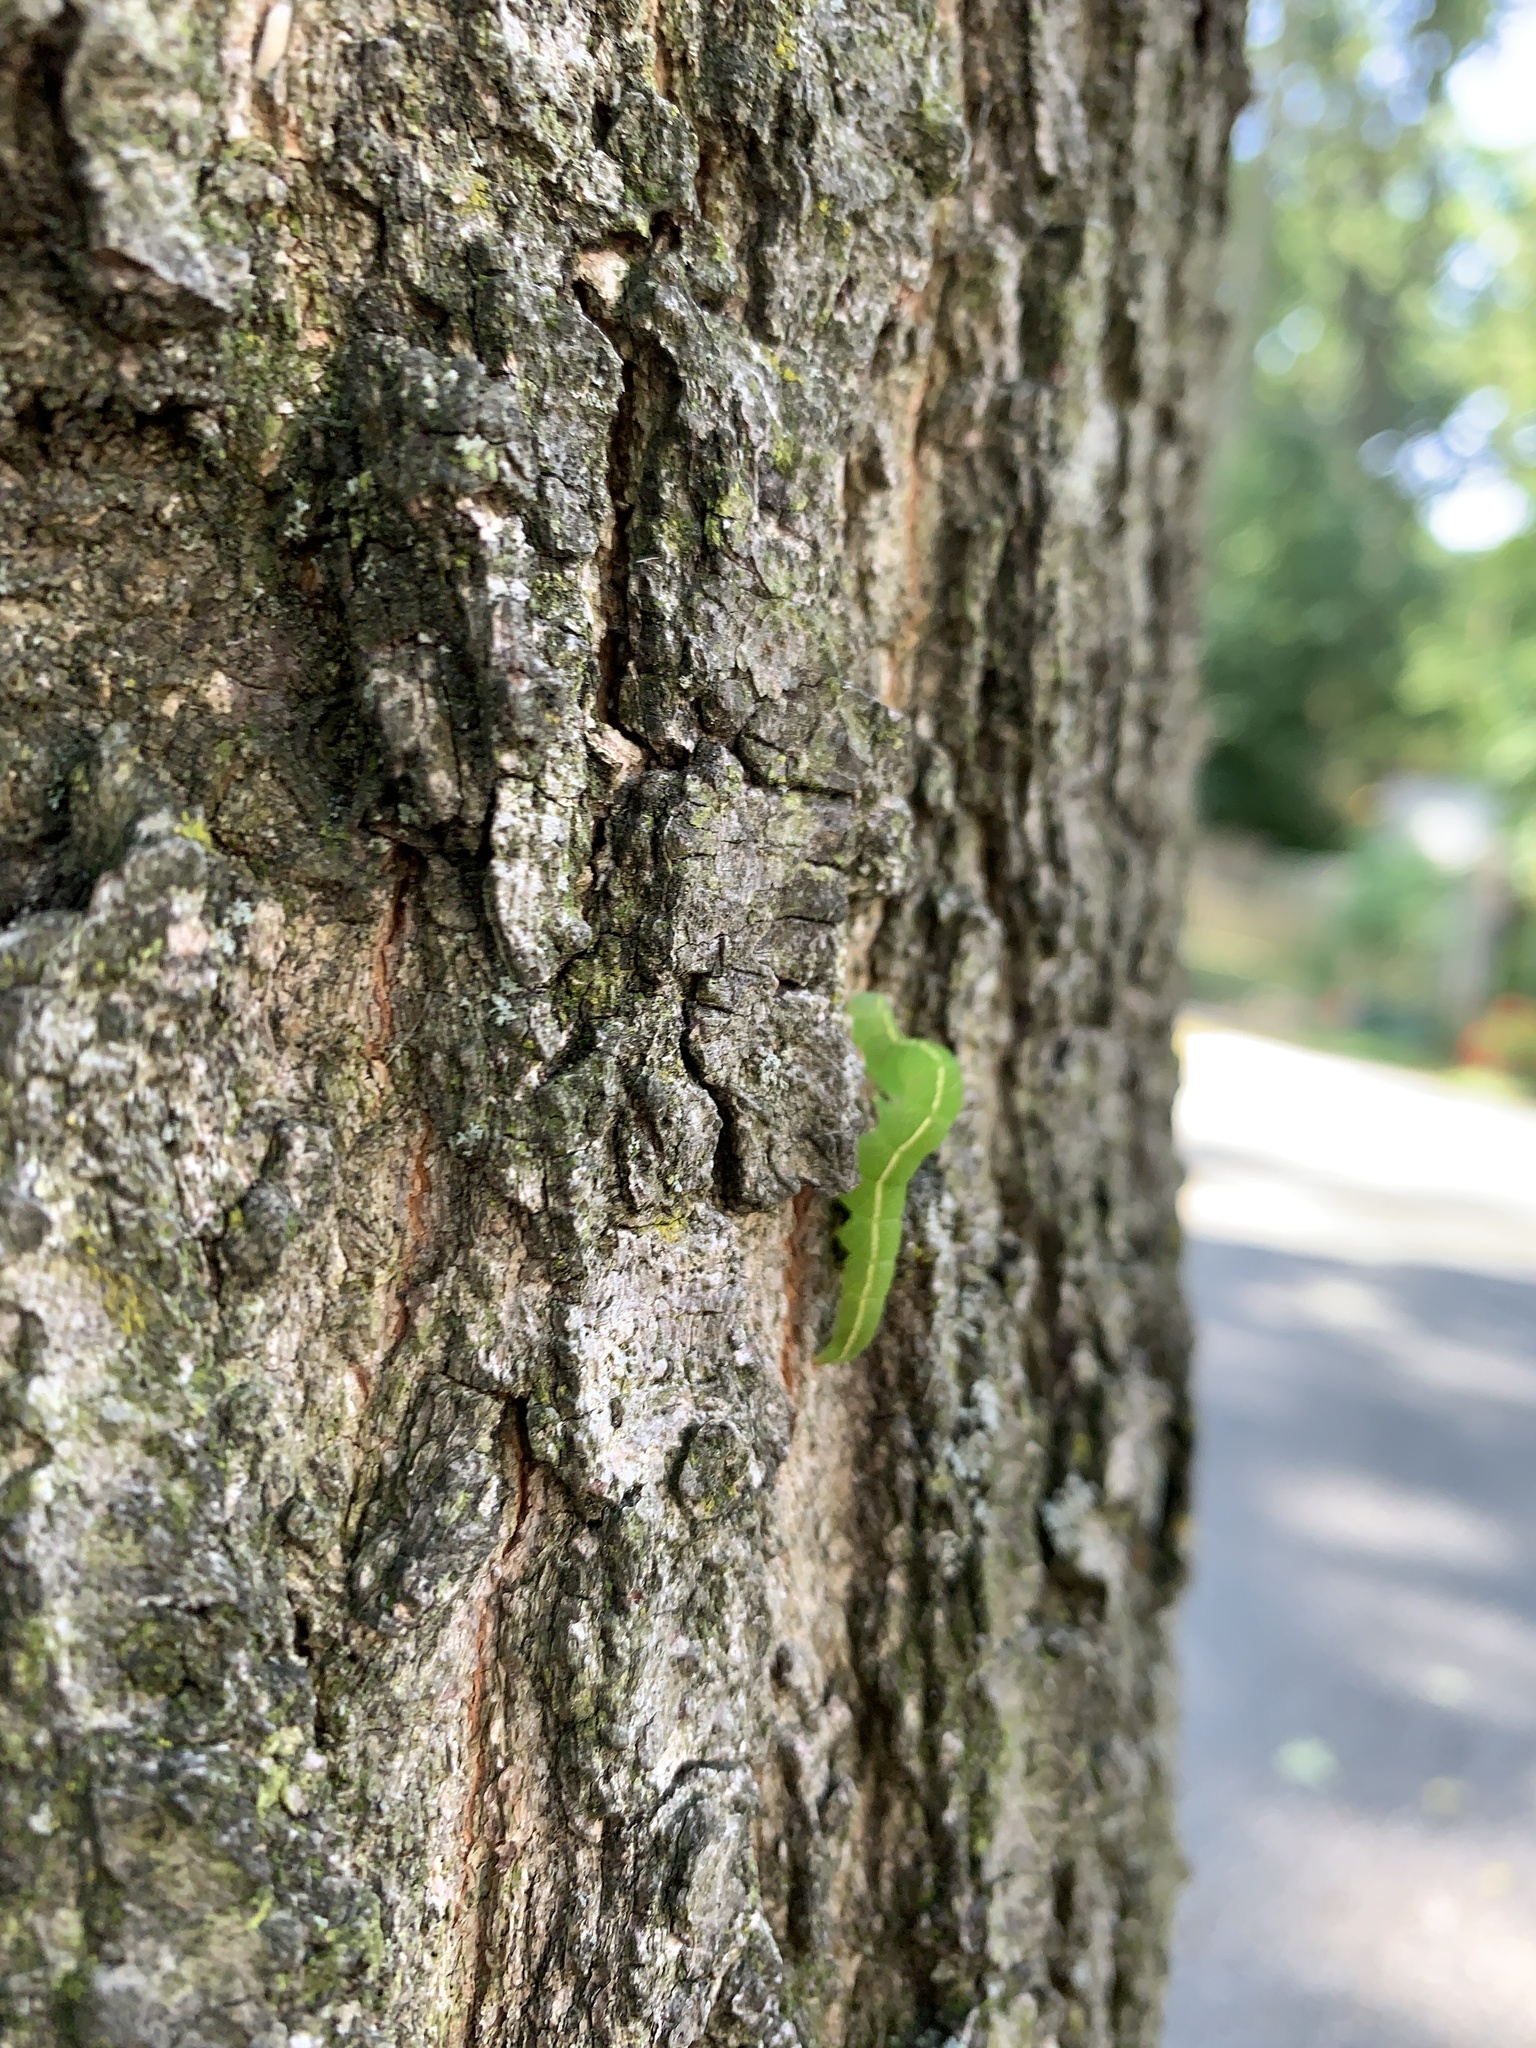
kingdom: Animalia
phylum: Arthropoda
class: Insecta
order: Lepidoptera
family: Erebidae
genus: Panopoda
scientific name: Panopoda rufimargo
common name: Red-lined panopoda moth
